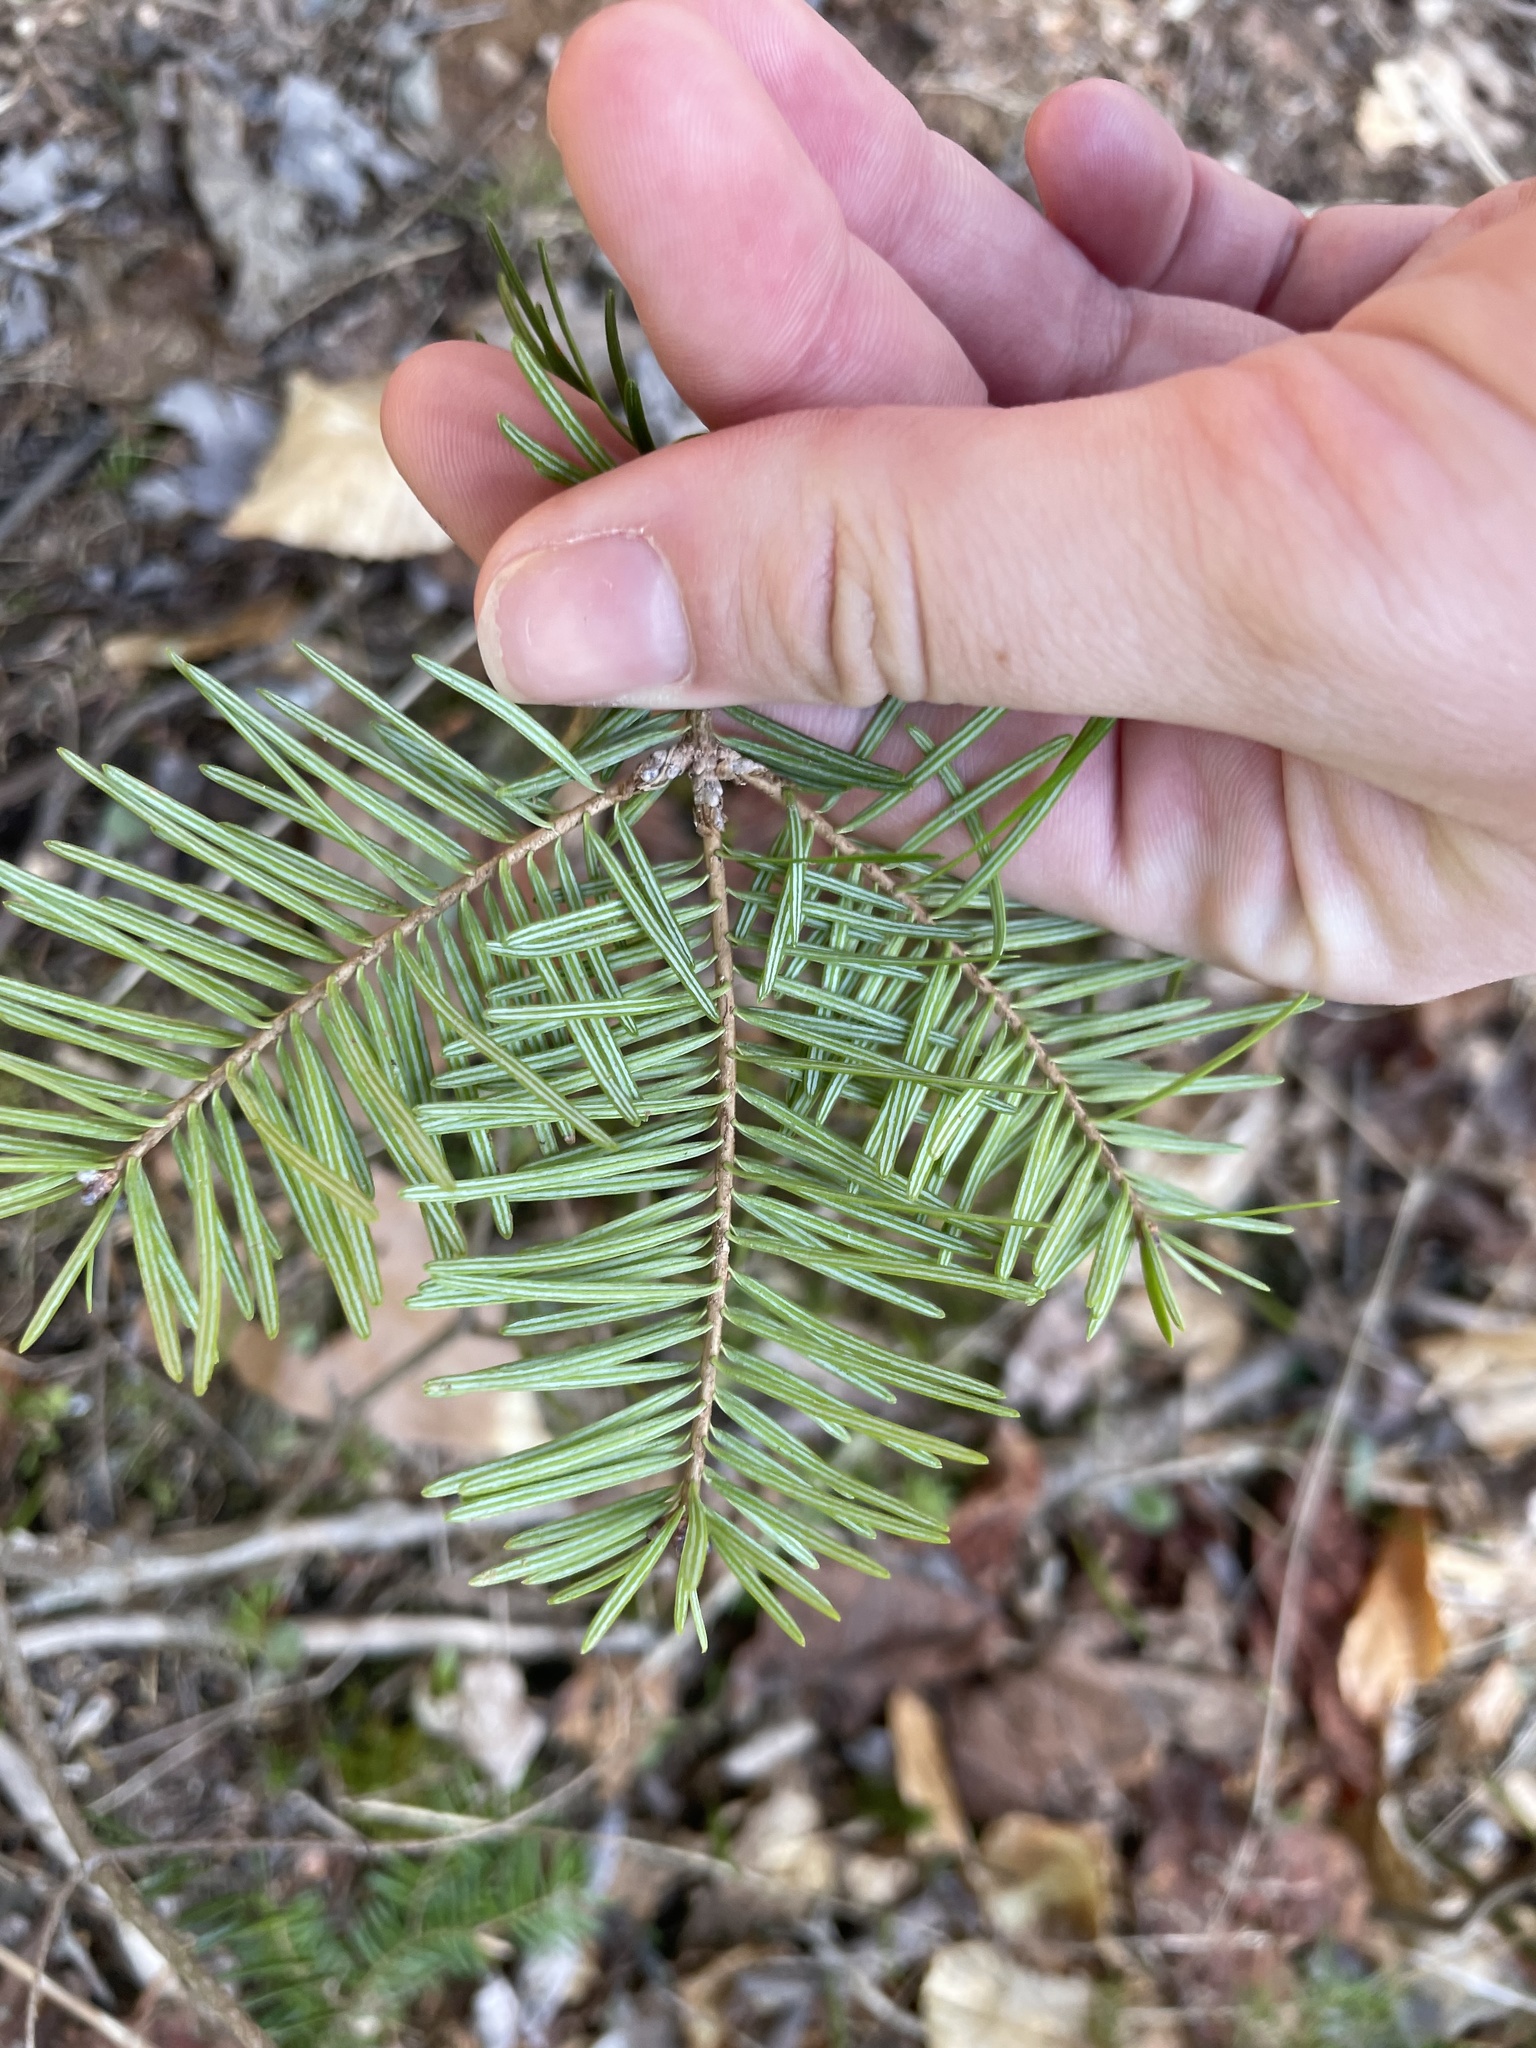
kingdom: Plantae
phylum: Tracheophyta
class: Pinopsida
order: Pinales
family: Pinaceae
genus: Abies
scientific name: Abies balsamea
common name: Balsam fir
